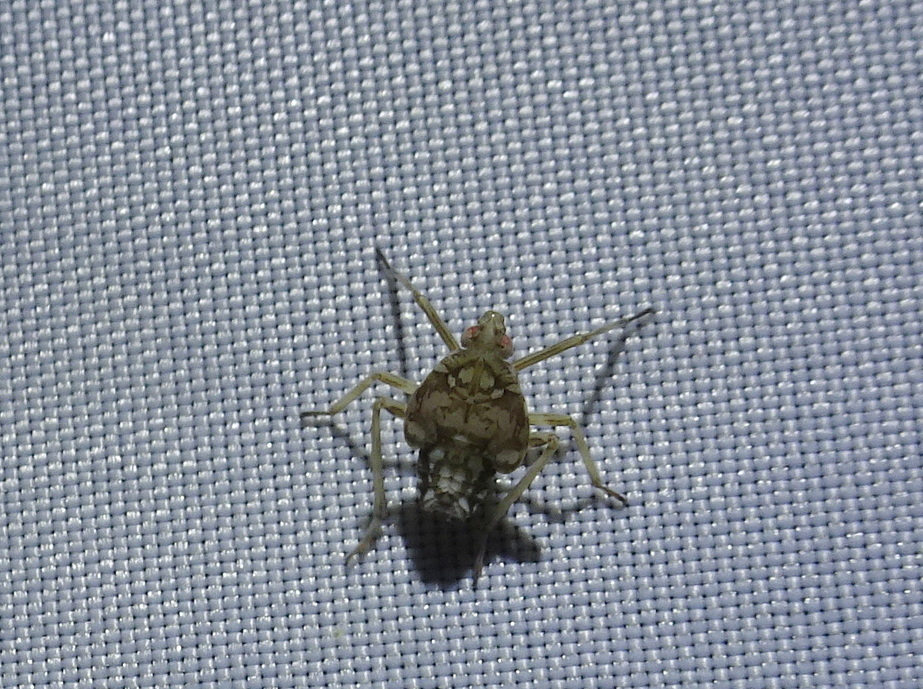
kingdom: Animalia
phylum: Arthropoda
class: Insecta
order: Hemiptera
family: Dictyopharidae
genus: Nersia
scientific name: Nersia florida
